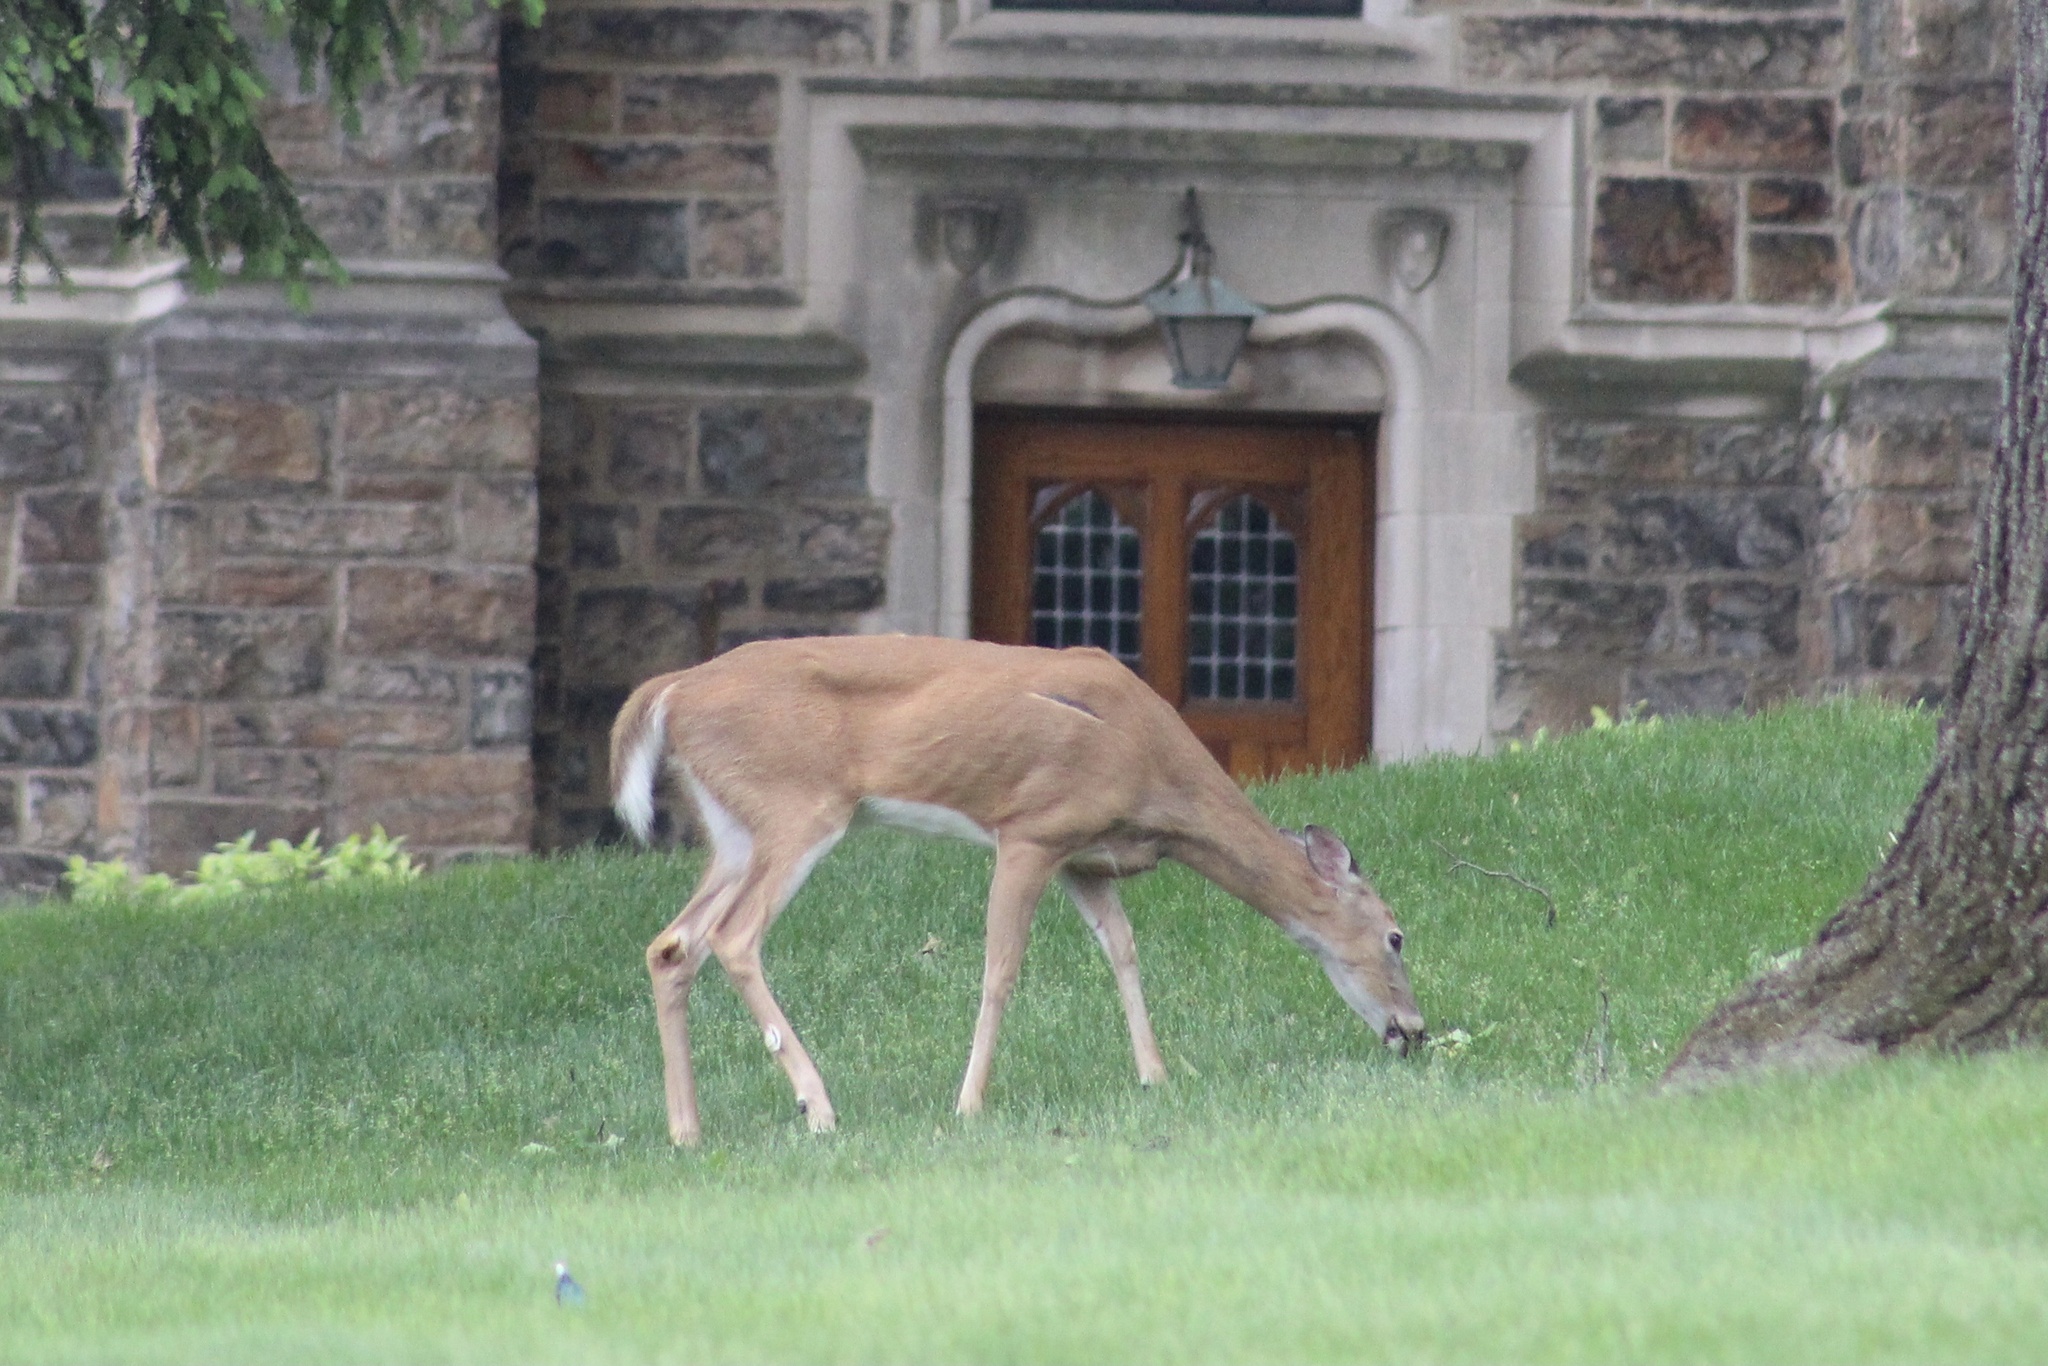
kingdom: Animalia
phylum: Chordata
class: Mammalia
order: Artiodactyla
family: Cervidae
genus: Odocoileus
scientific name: Odocoileus virginianus
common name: White-tailed deer
